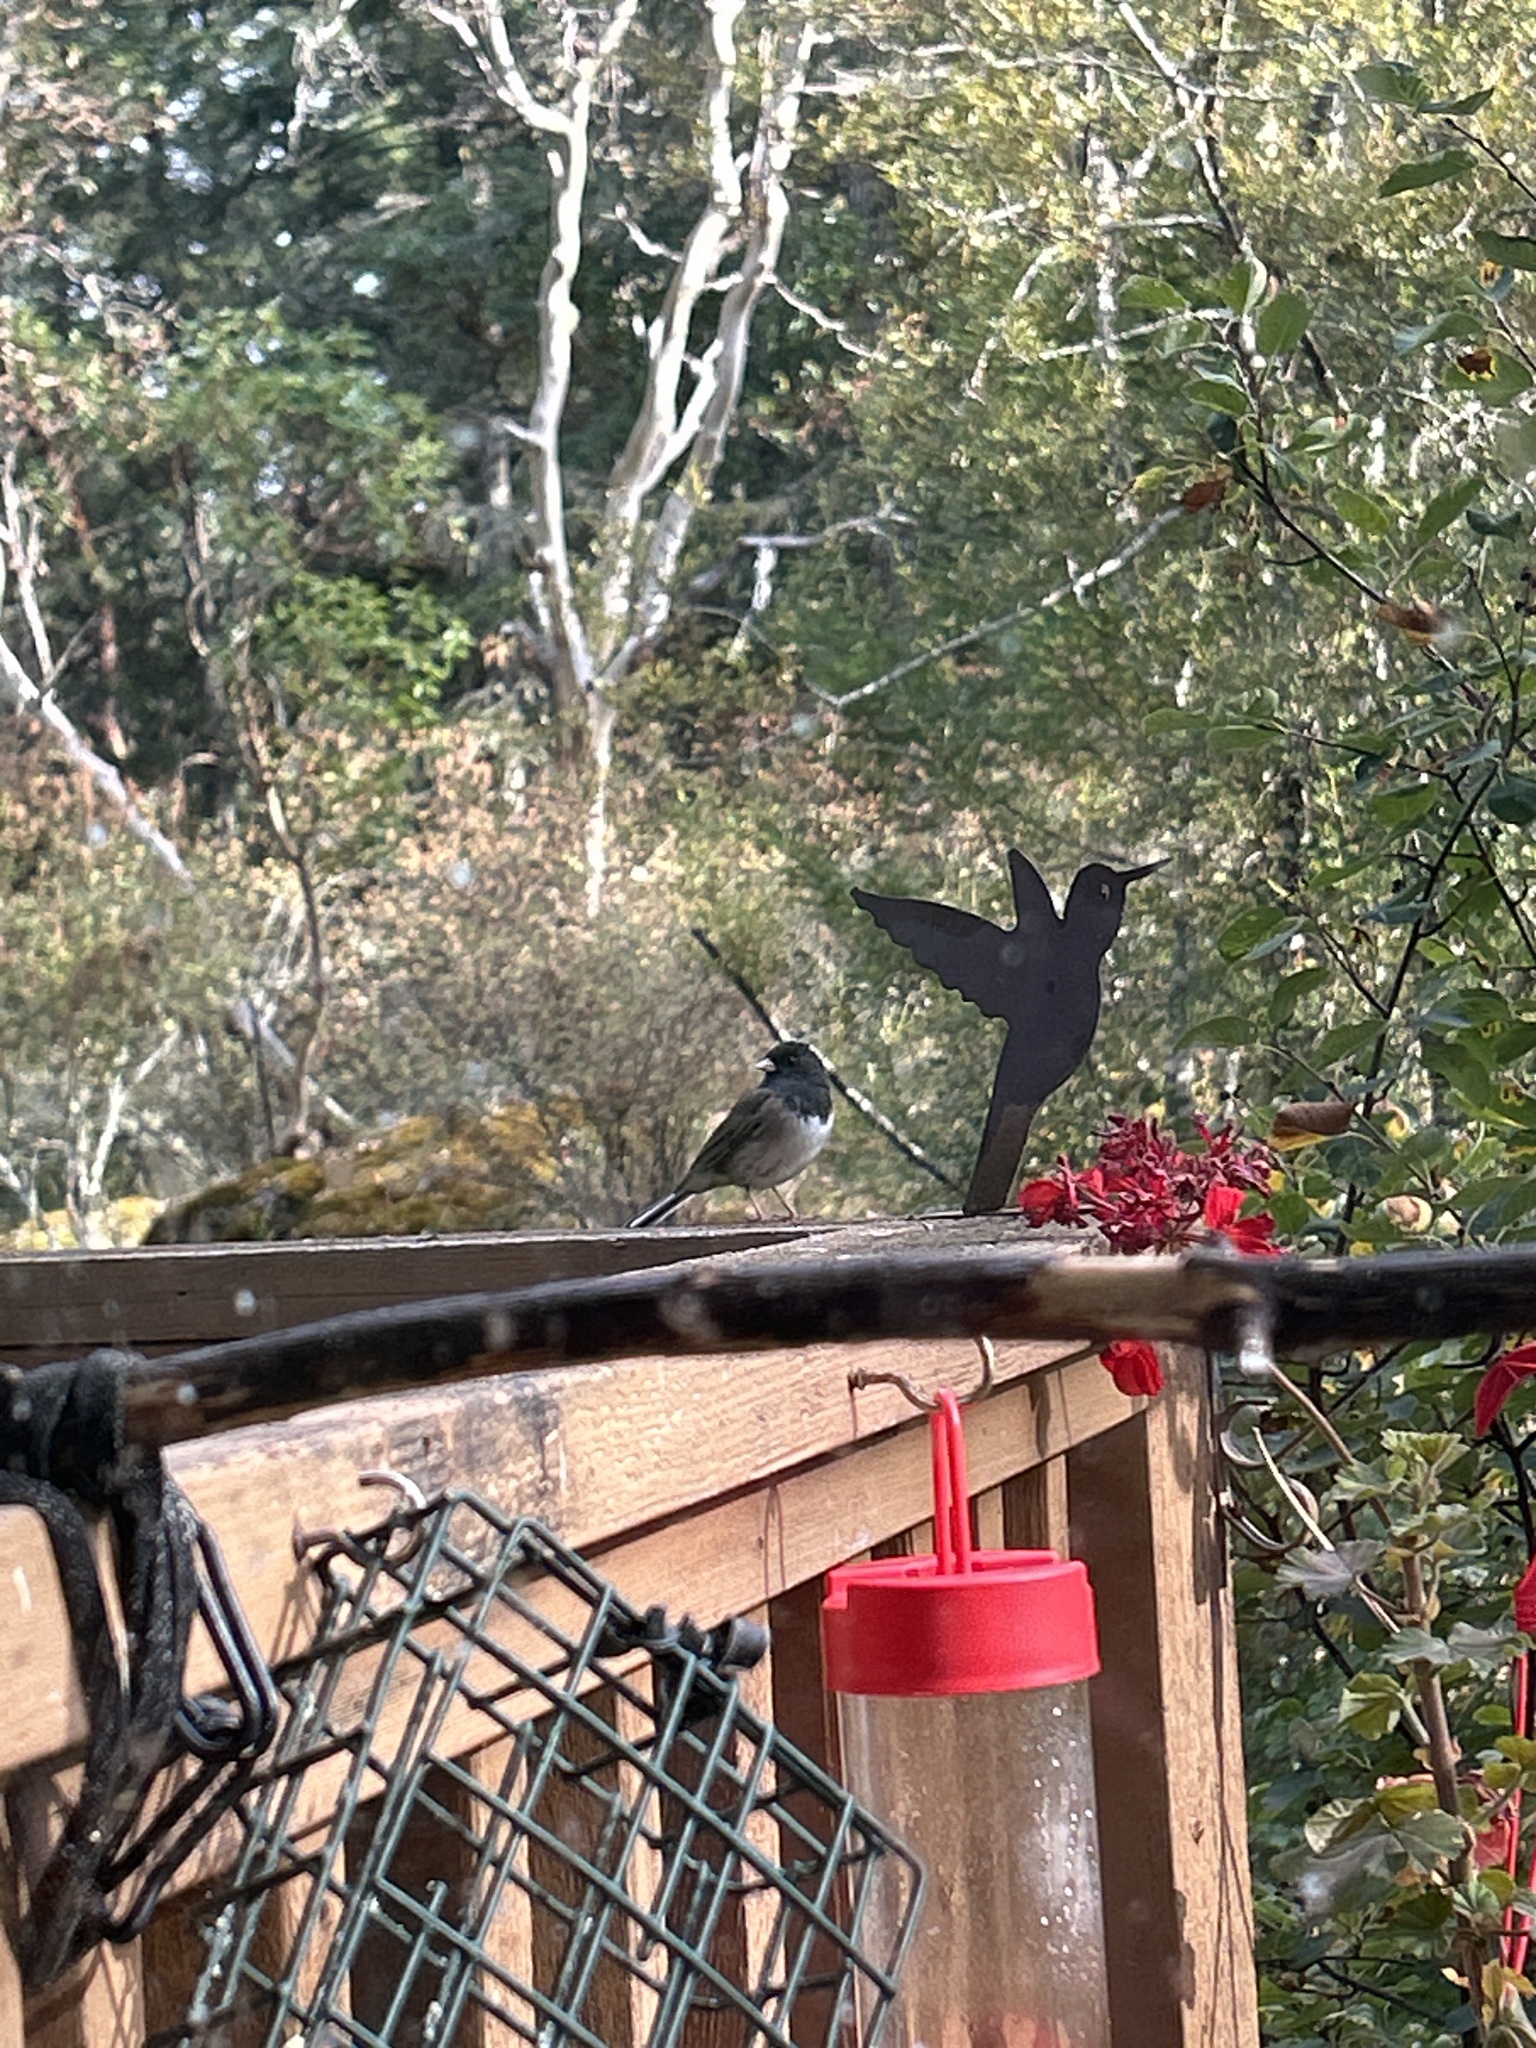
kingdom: Animalia
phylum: Chordata
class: Aves
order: Passeriformes
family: Passerellidae
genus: Junco
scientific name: Junco hyemalis
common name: Dark-eyed junco
